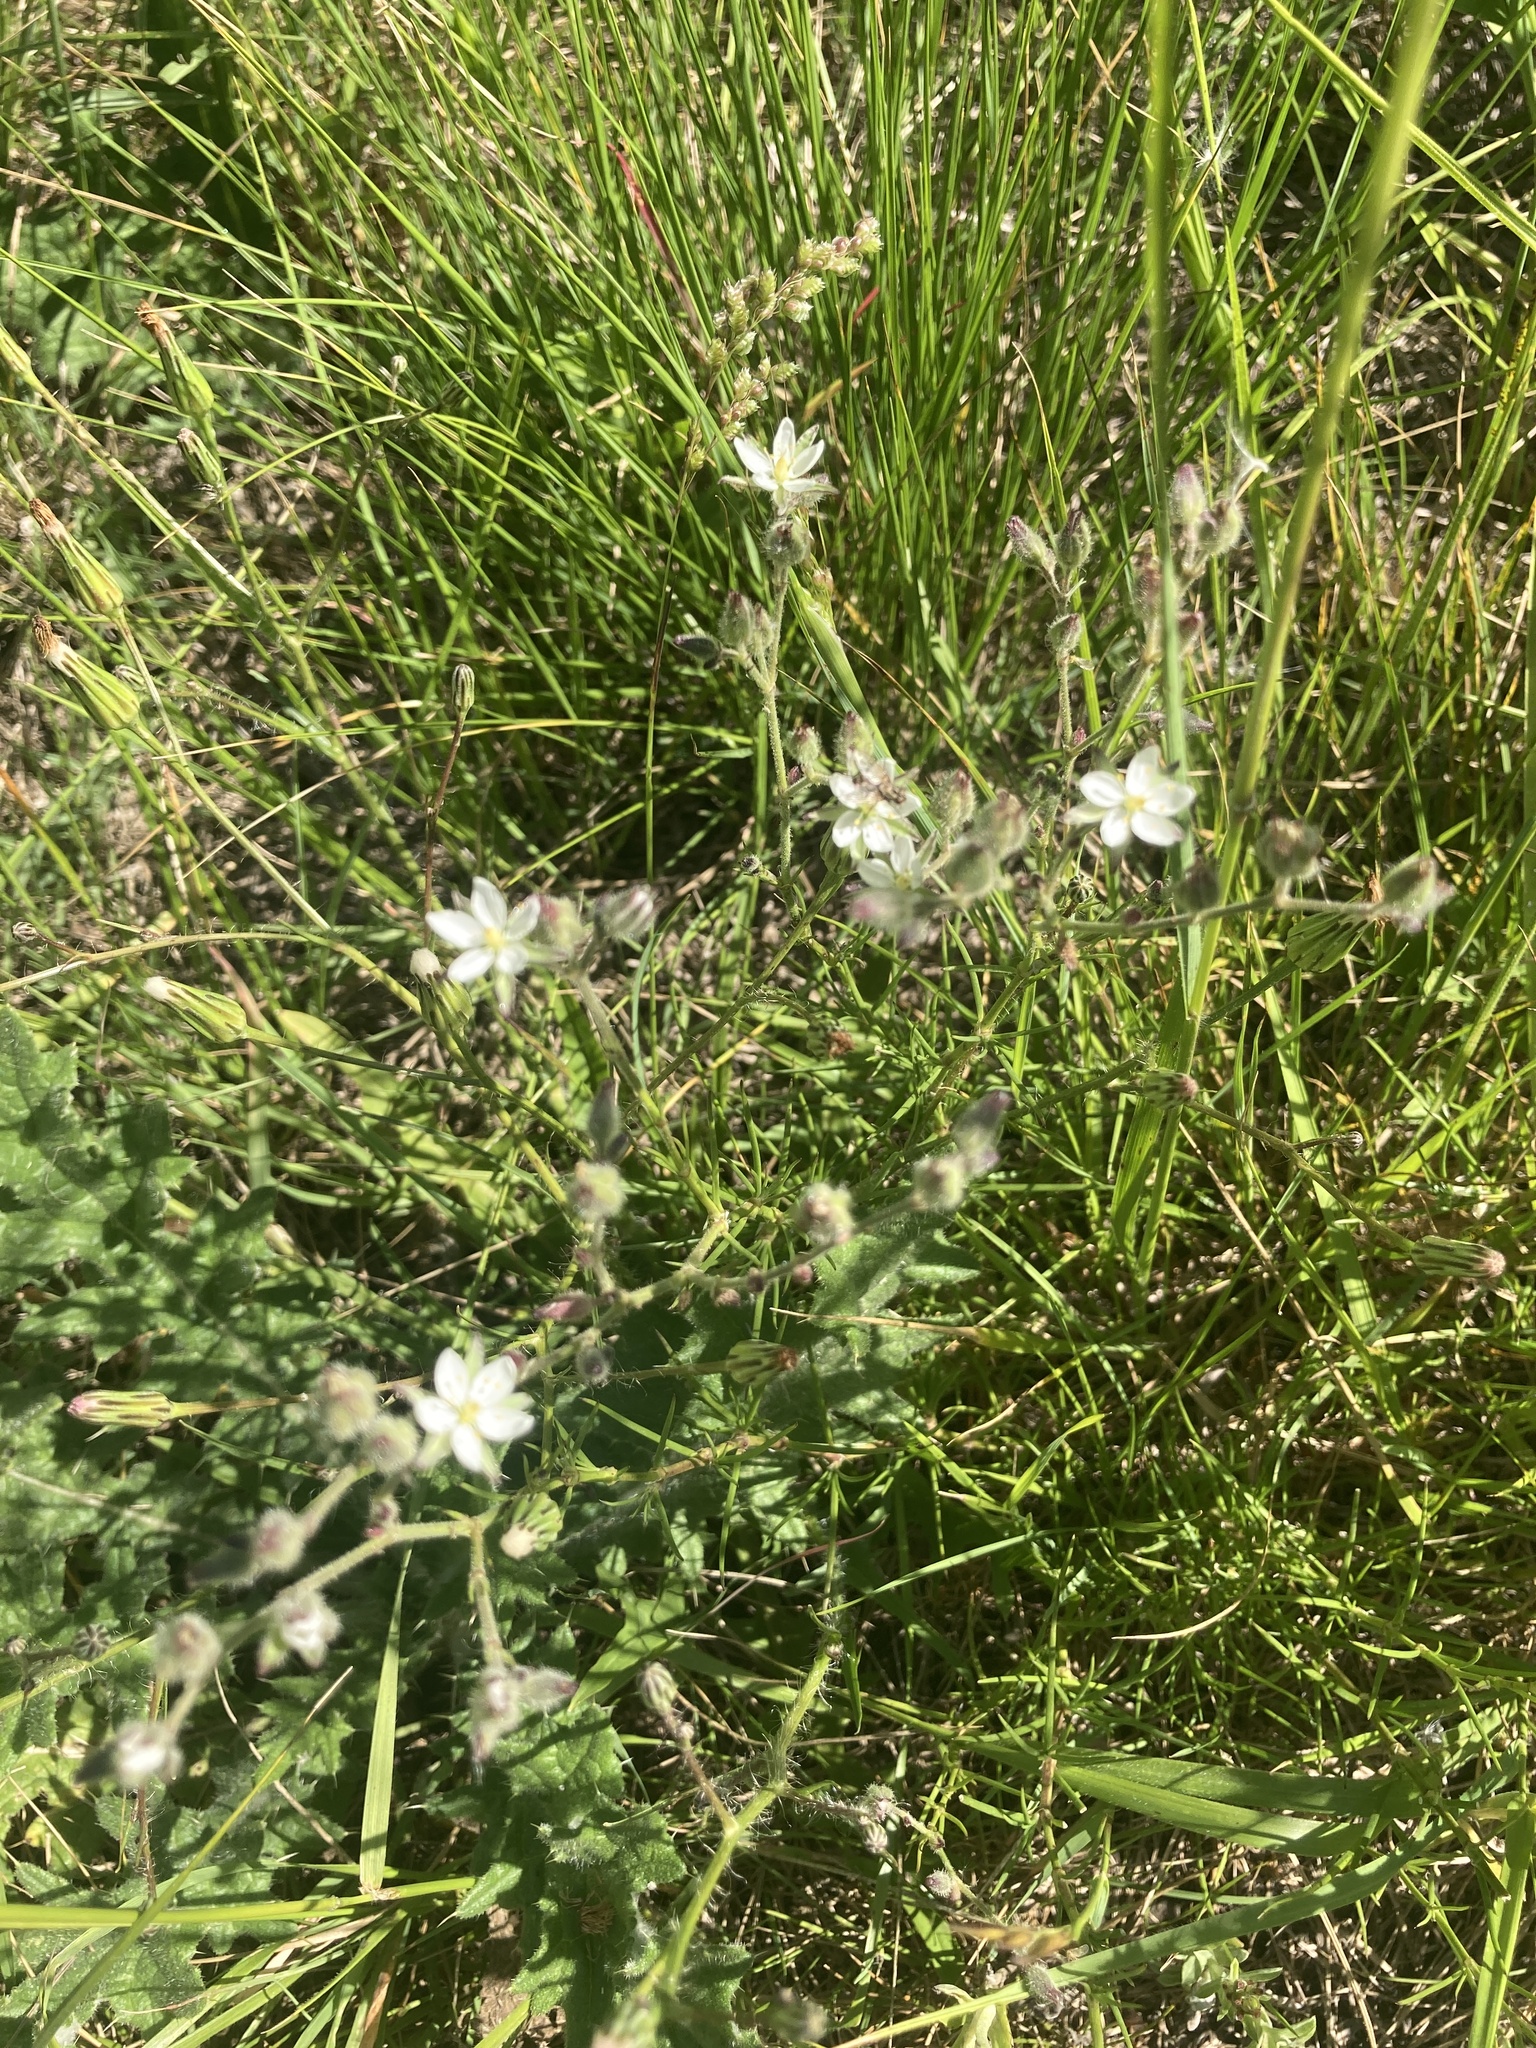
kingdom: Plantae
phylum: Tracheophyta
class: Magnoliopsida
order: Caryophyllales
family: Caryophyllaceae
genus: Spergula
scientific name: Spergula ramosa
